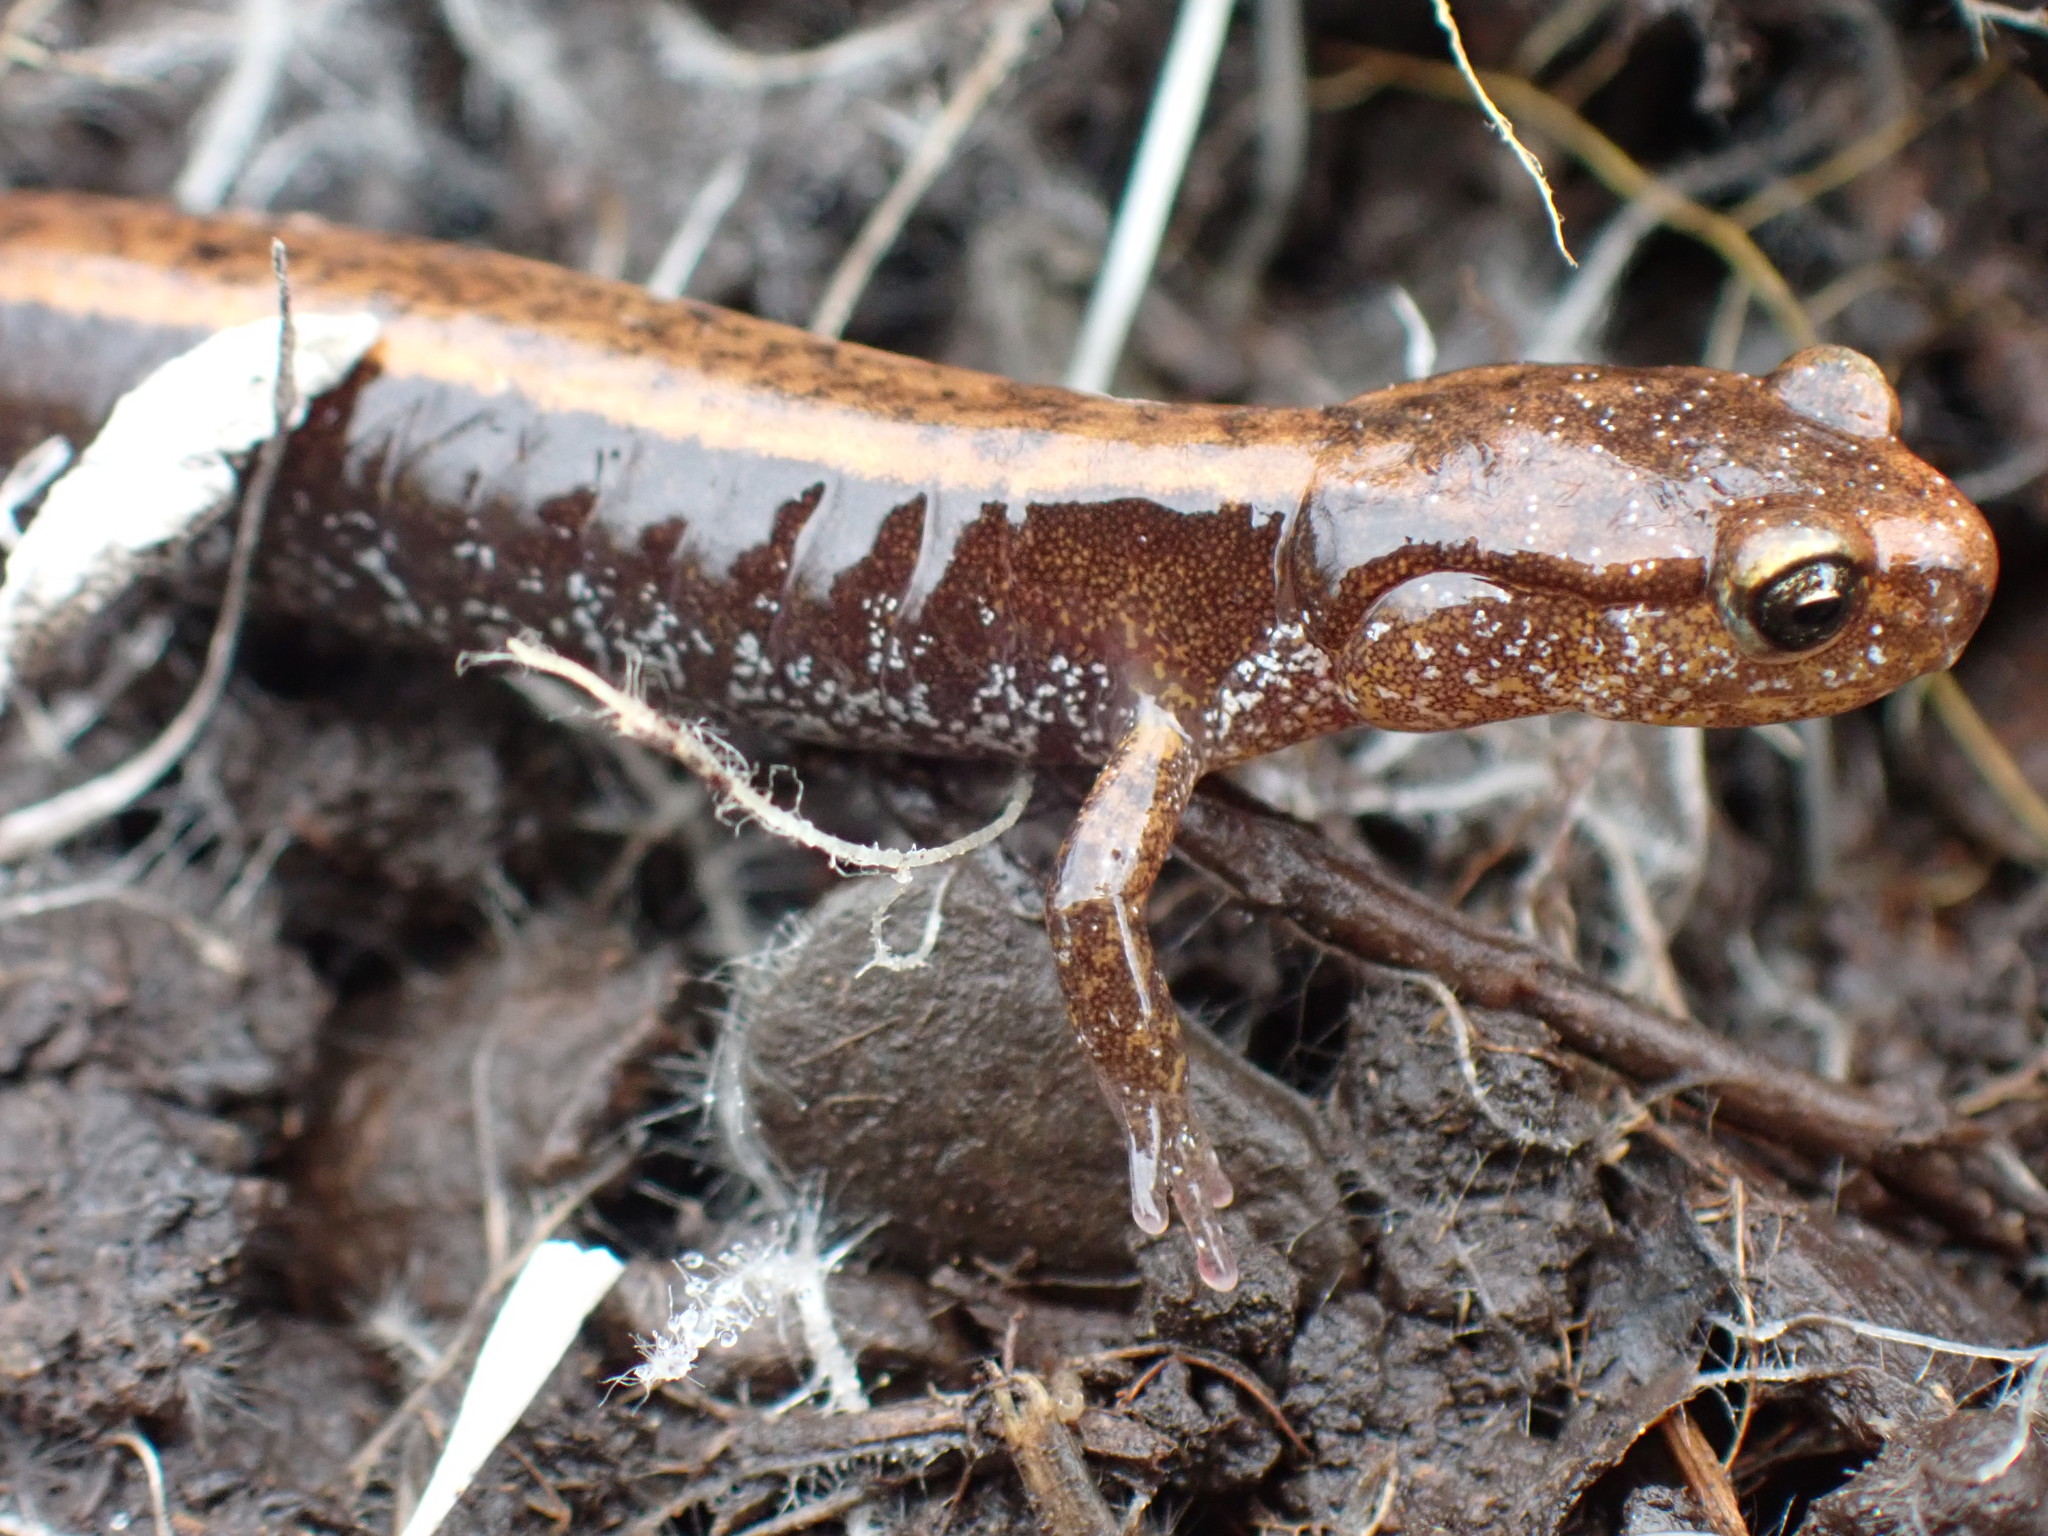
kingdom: Animalia
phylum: Chordata
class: Amphibia
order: Caudata
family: Plethodontidae
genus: Plethodon
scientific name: Plethodon vehiculum
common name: Western red-backed salamander
